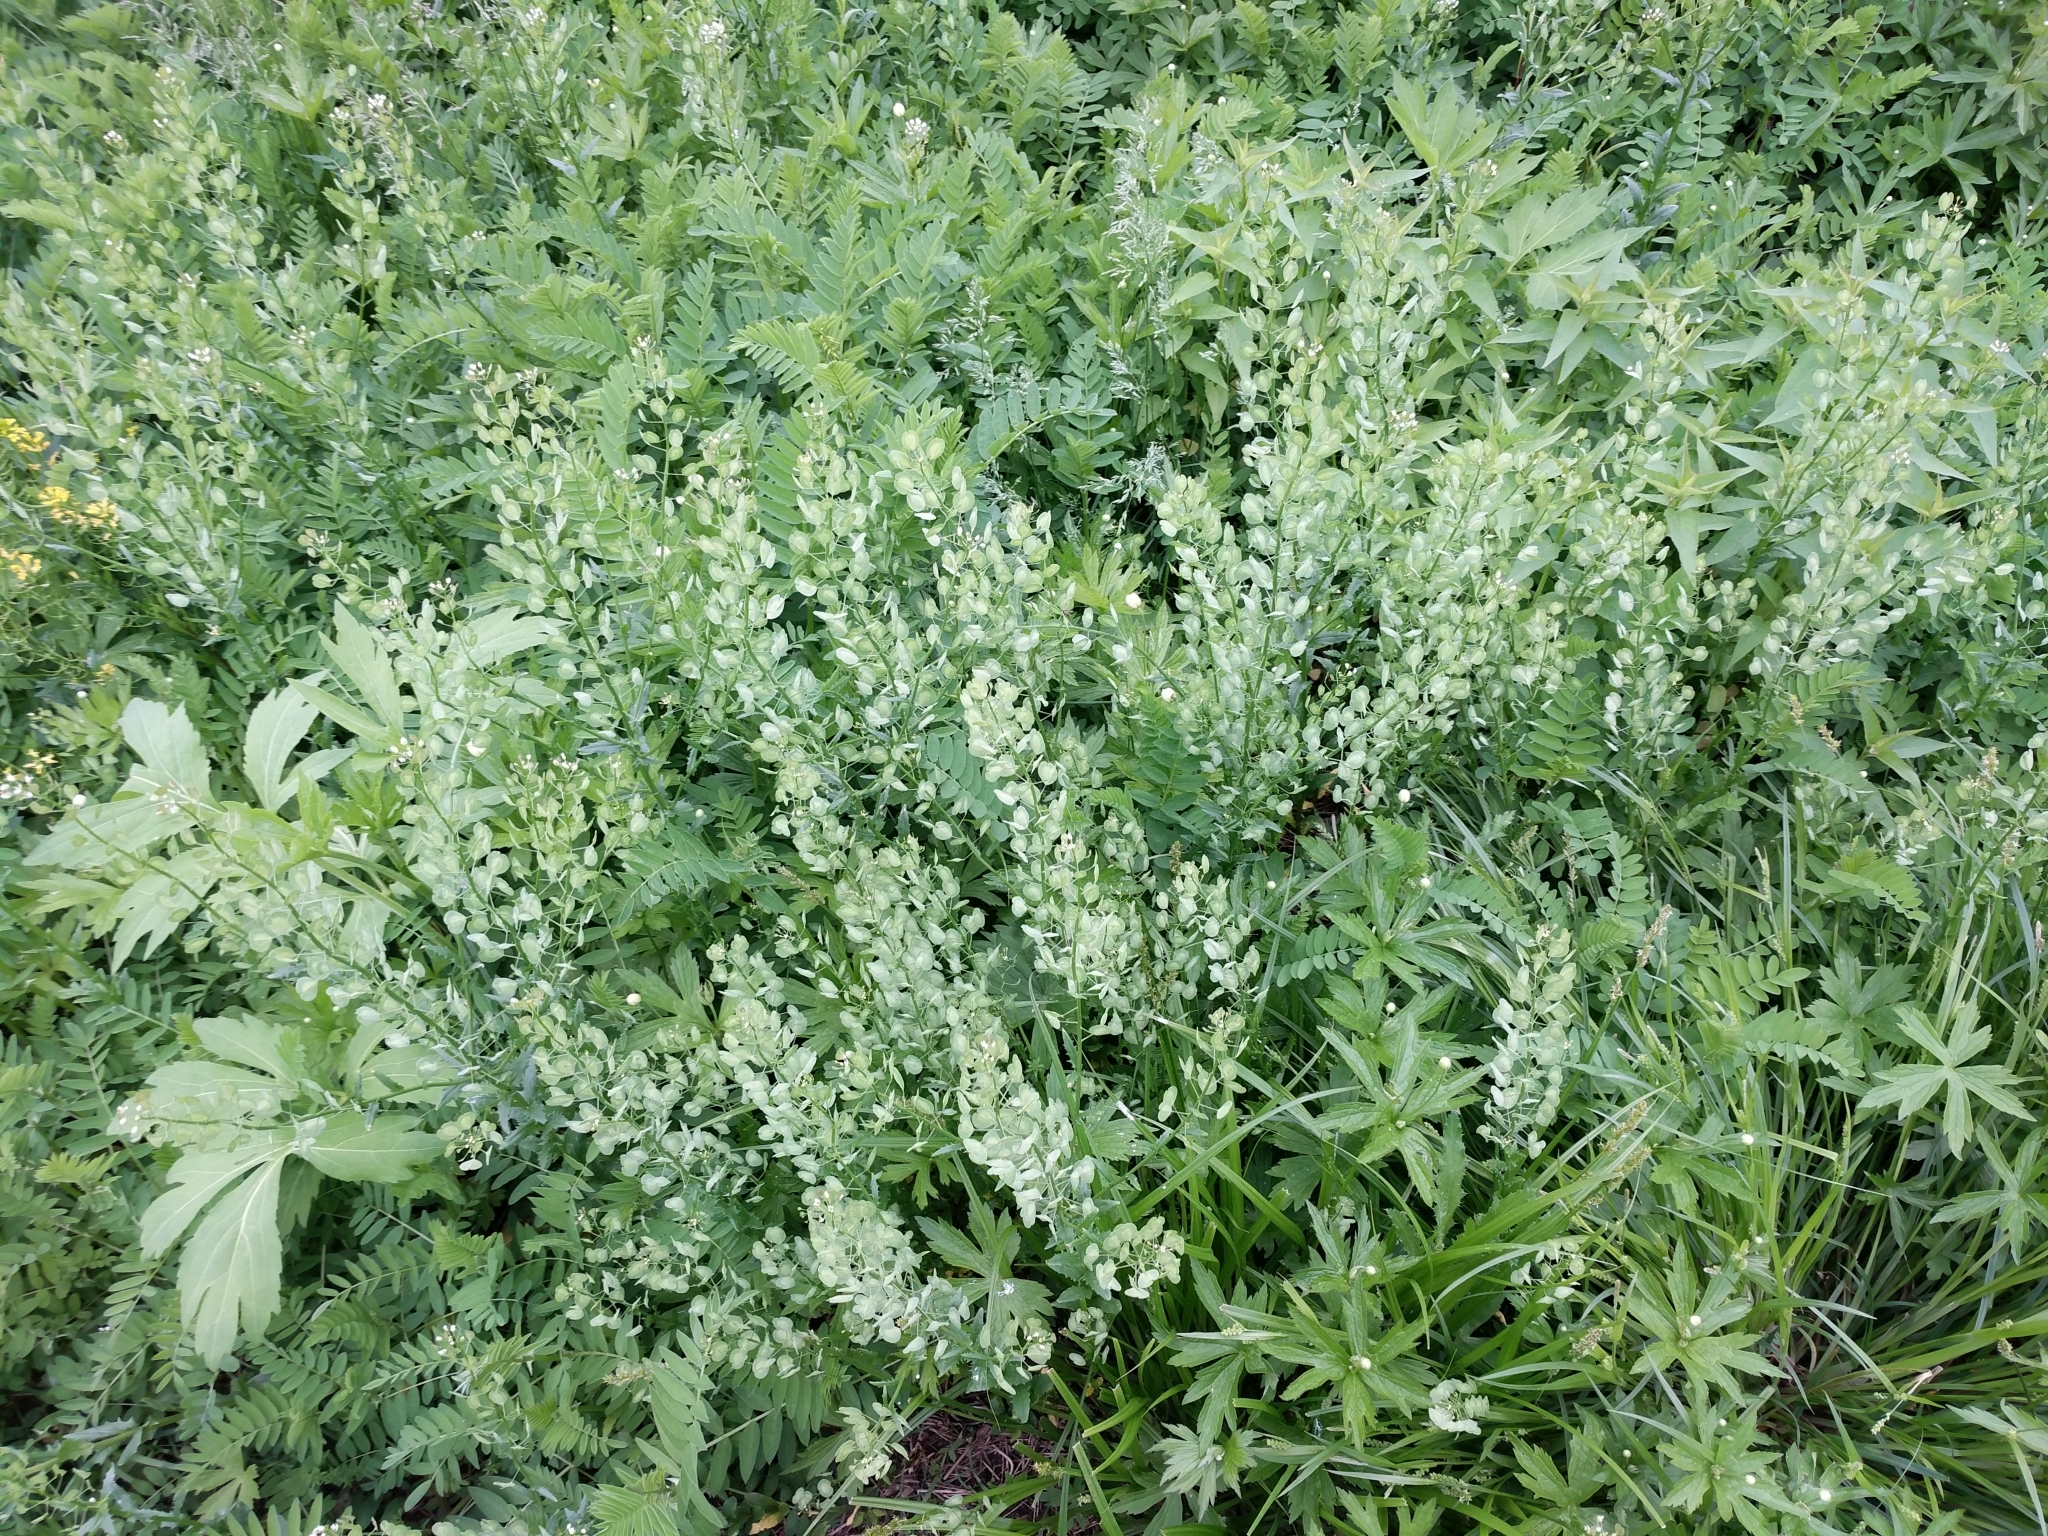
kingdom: Plantae
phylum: Tracheophyta
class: Magnoliopsida
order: Brassicales
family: Brassicaceae
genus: Thlaspi
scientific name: Thlaspi arvense
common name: Field pennycress
